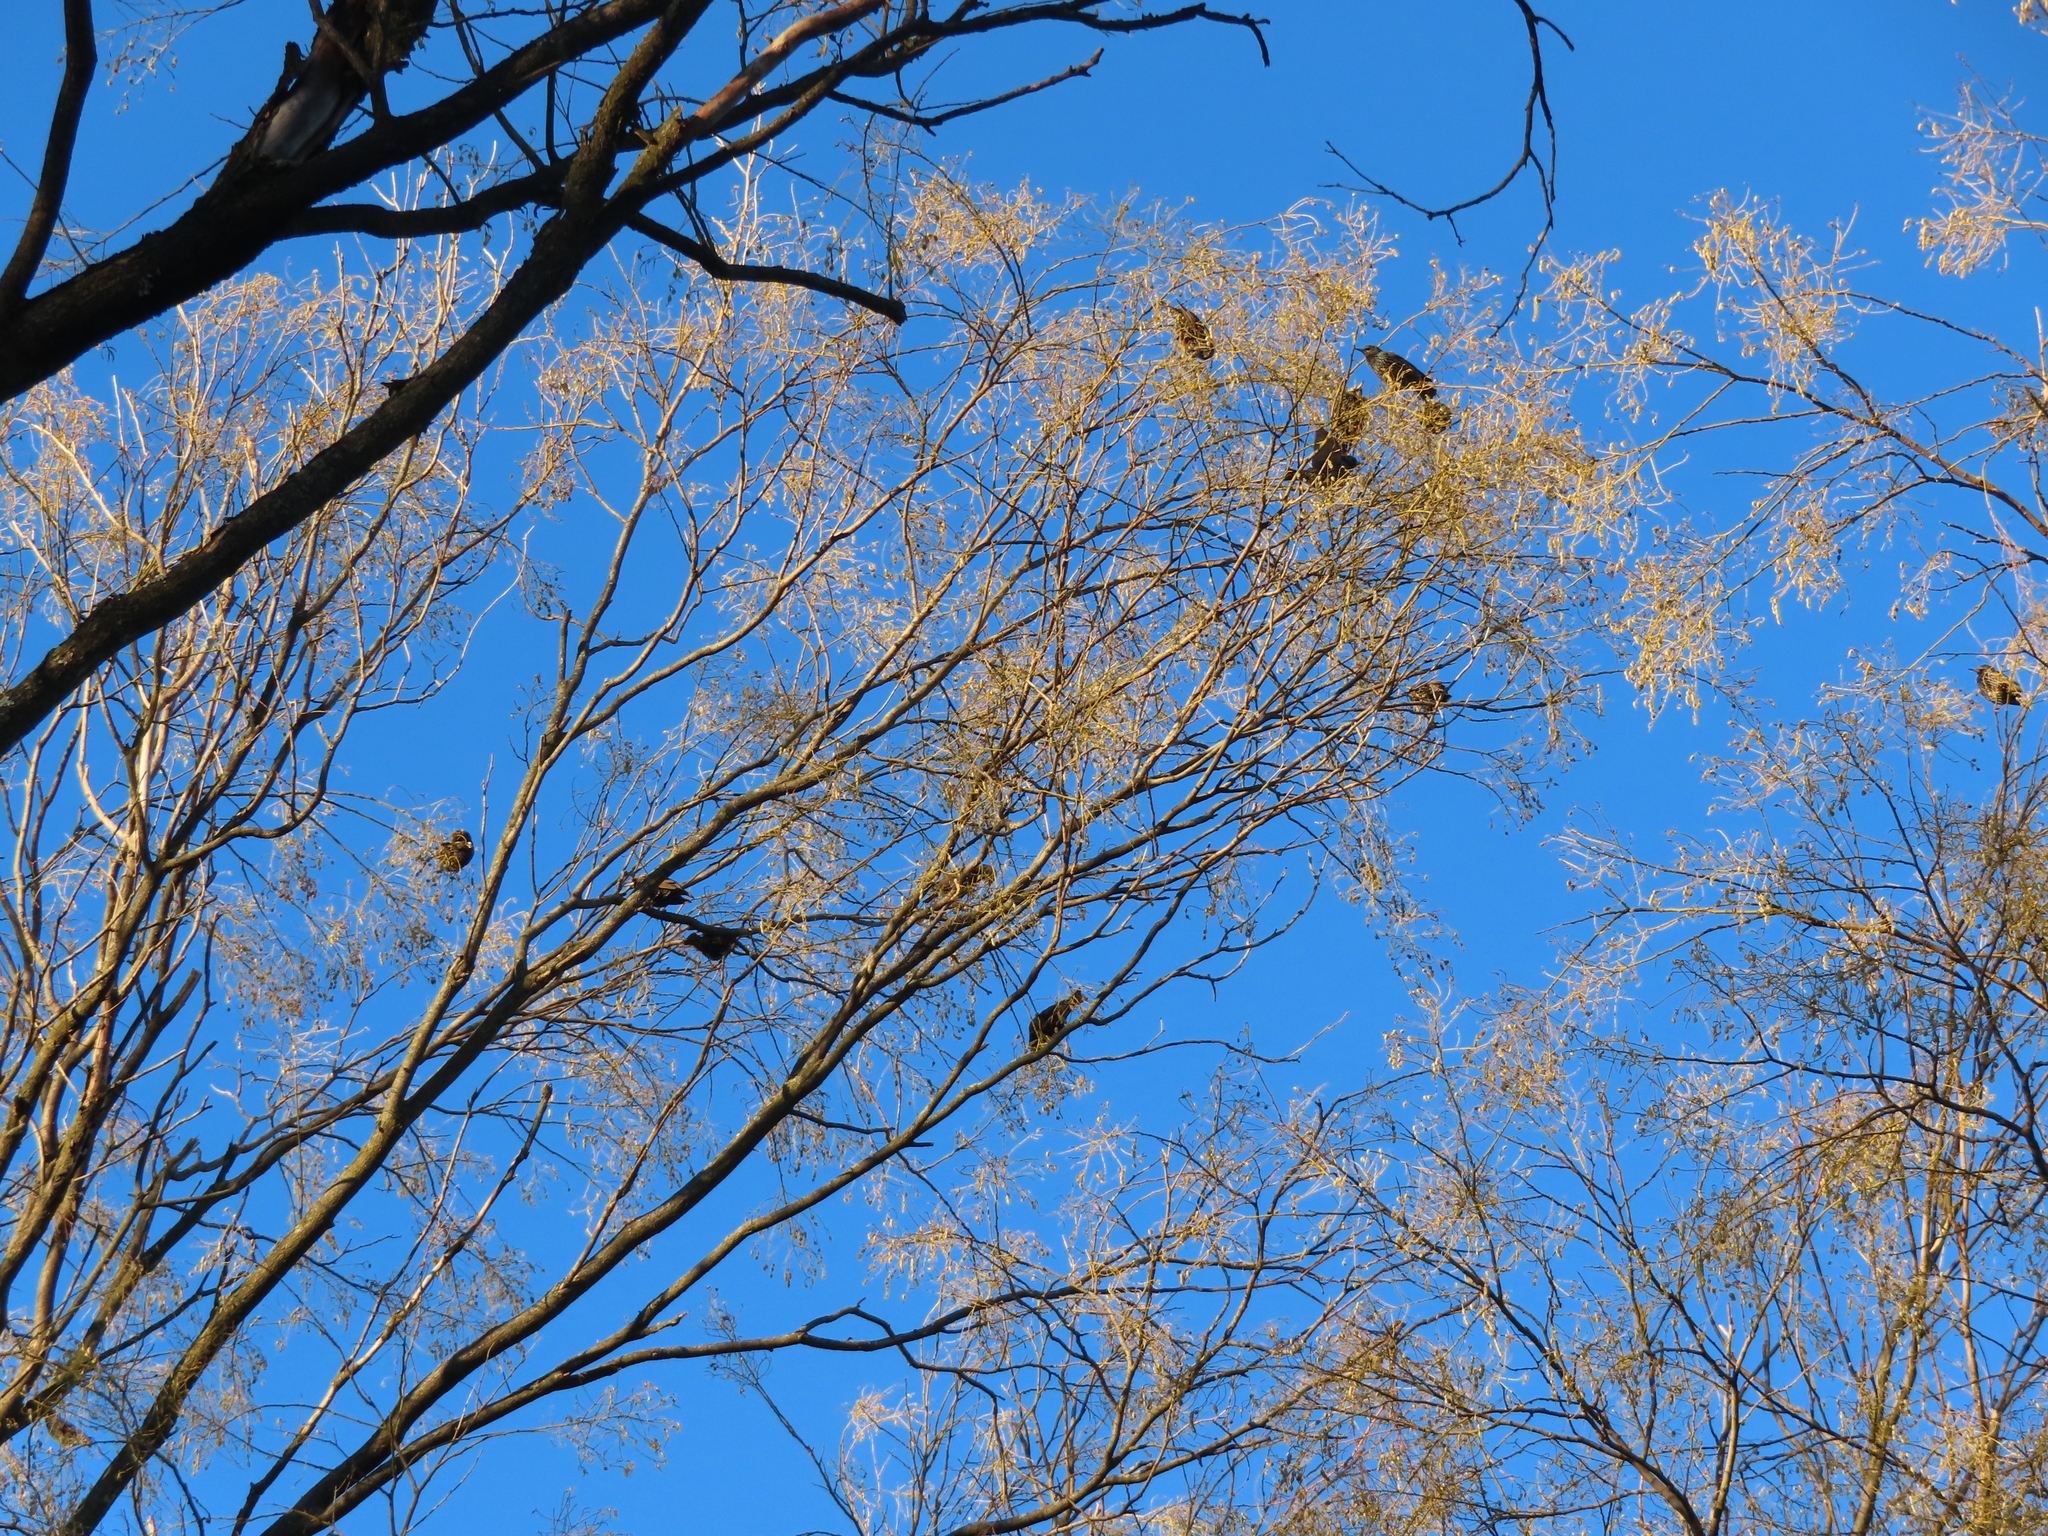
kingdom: Animalia
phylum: Chordata
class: Aves
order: Passeriformes
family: Sturnidae
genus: Sturnus
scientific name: Sturnus vulgaris
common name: Common starling
